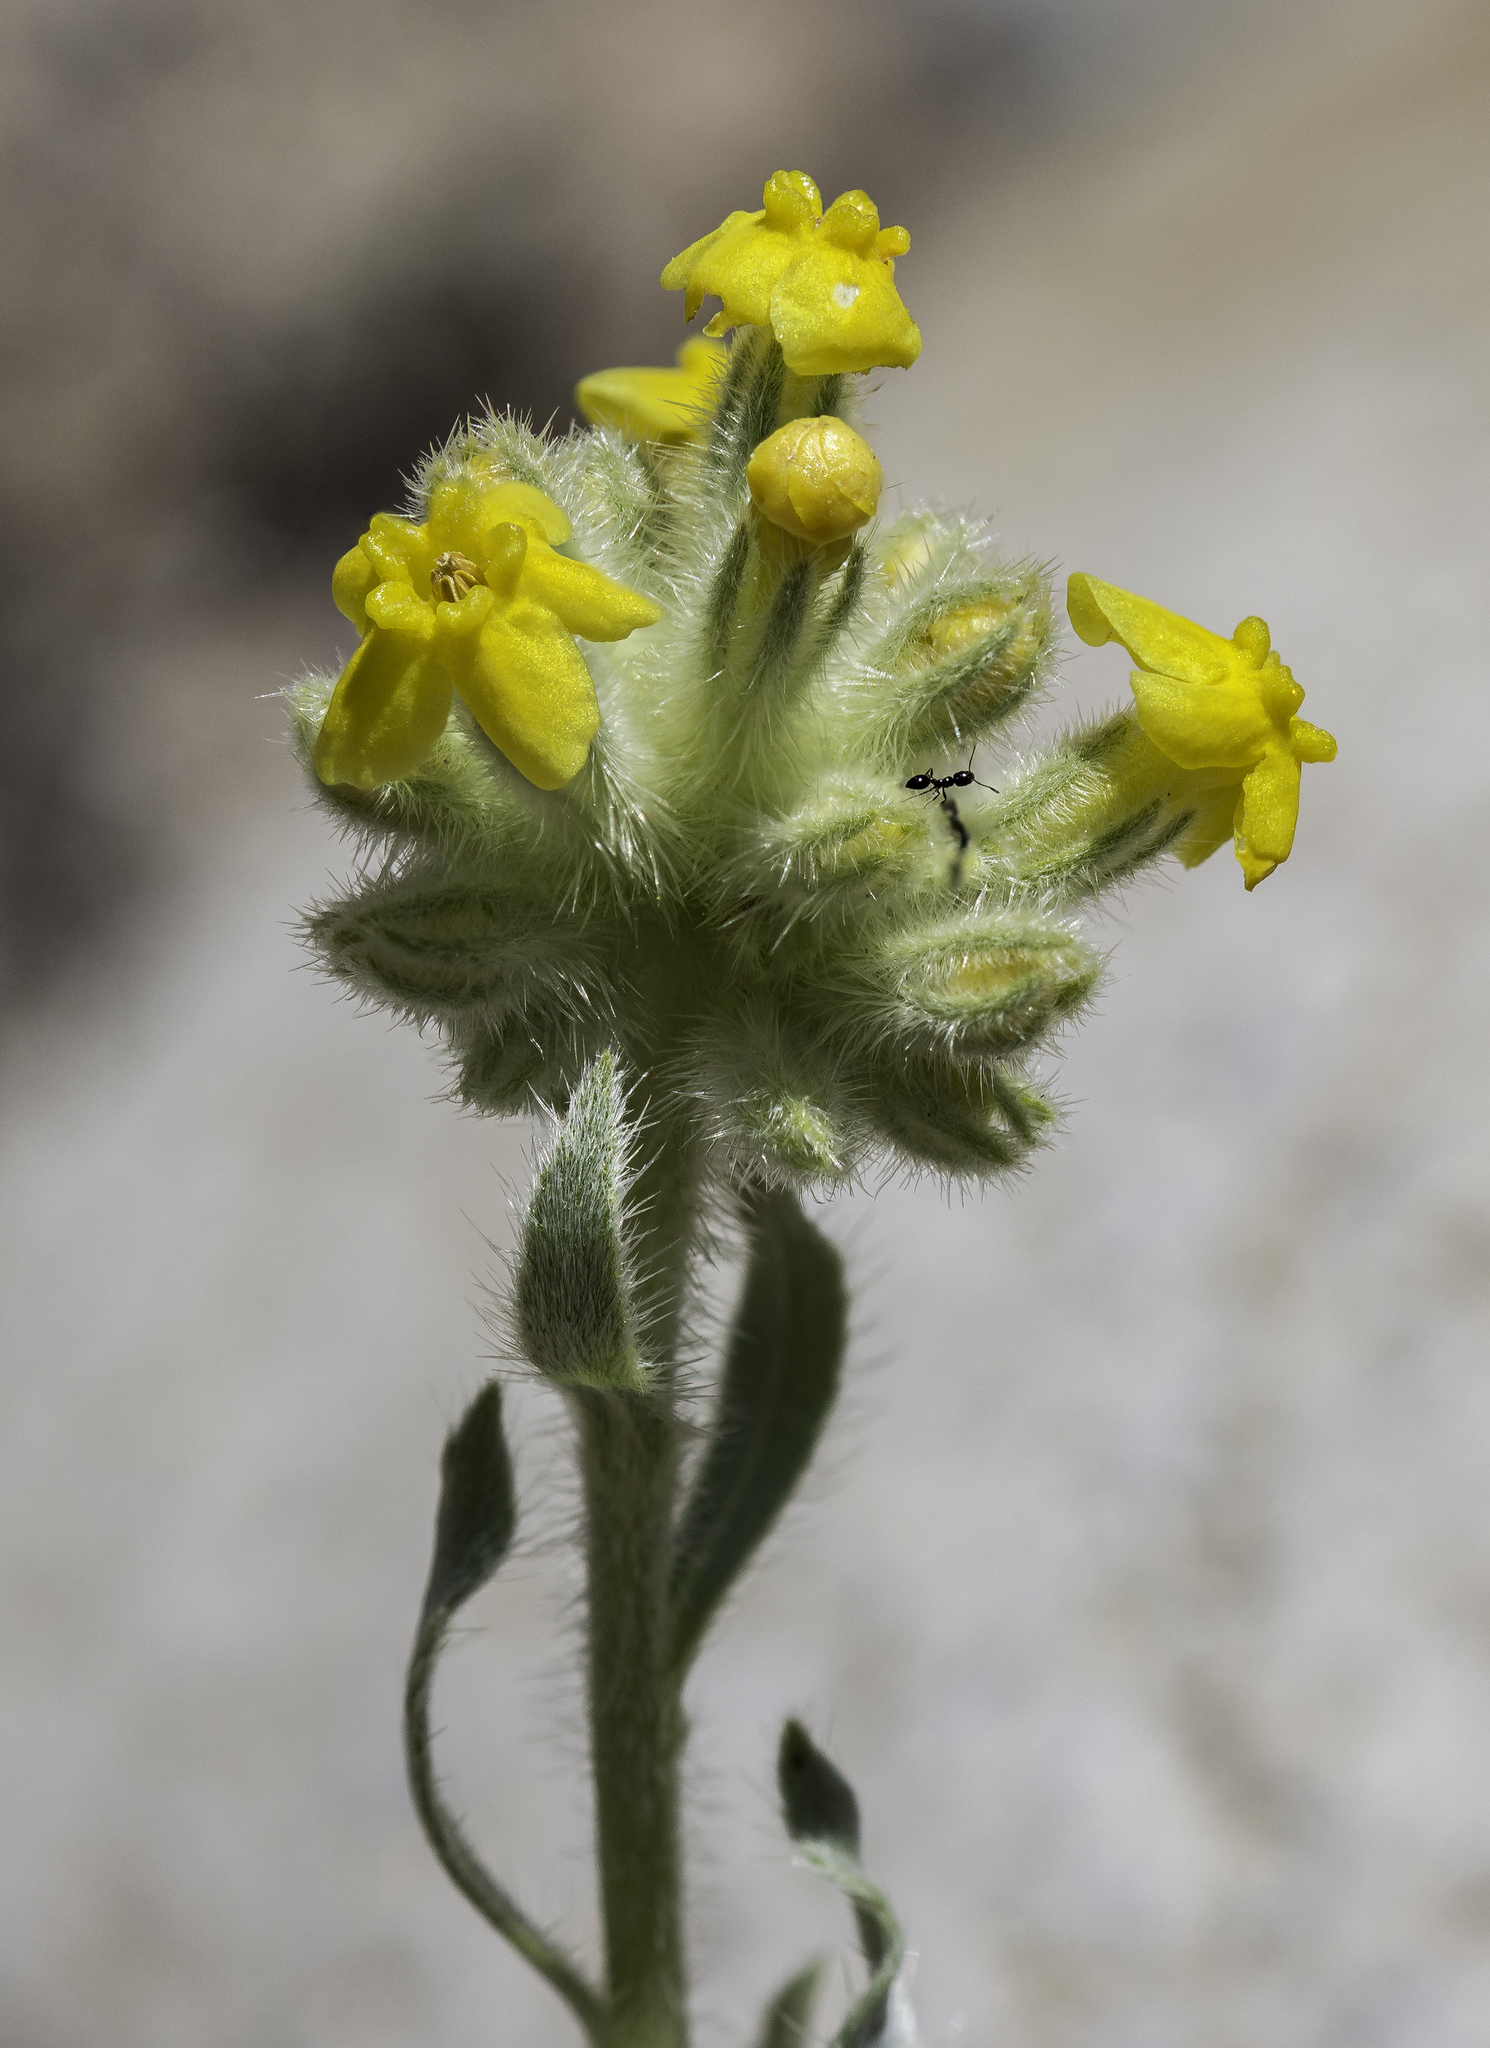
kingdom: Plantae
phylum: Tracheophyta
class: Magnoliopsida
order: Boraginales
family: Boraginaceae
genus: Oreocarya
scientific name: Oreocarya flava
